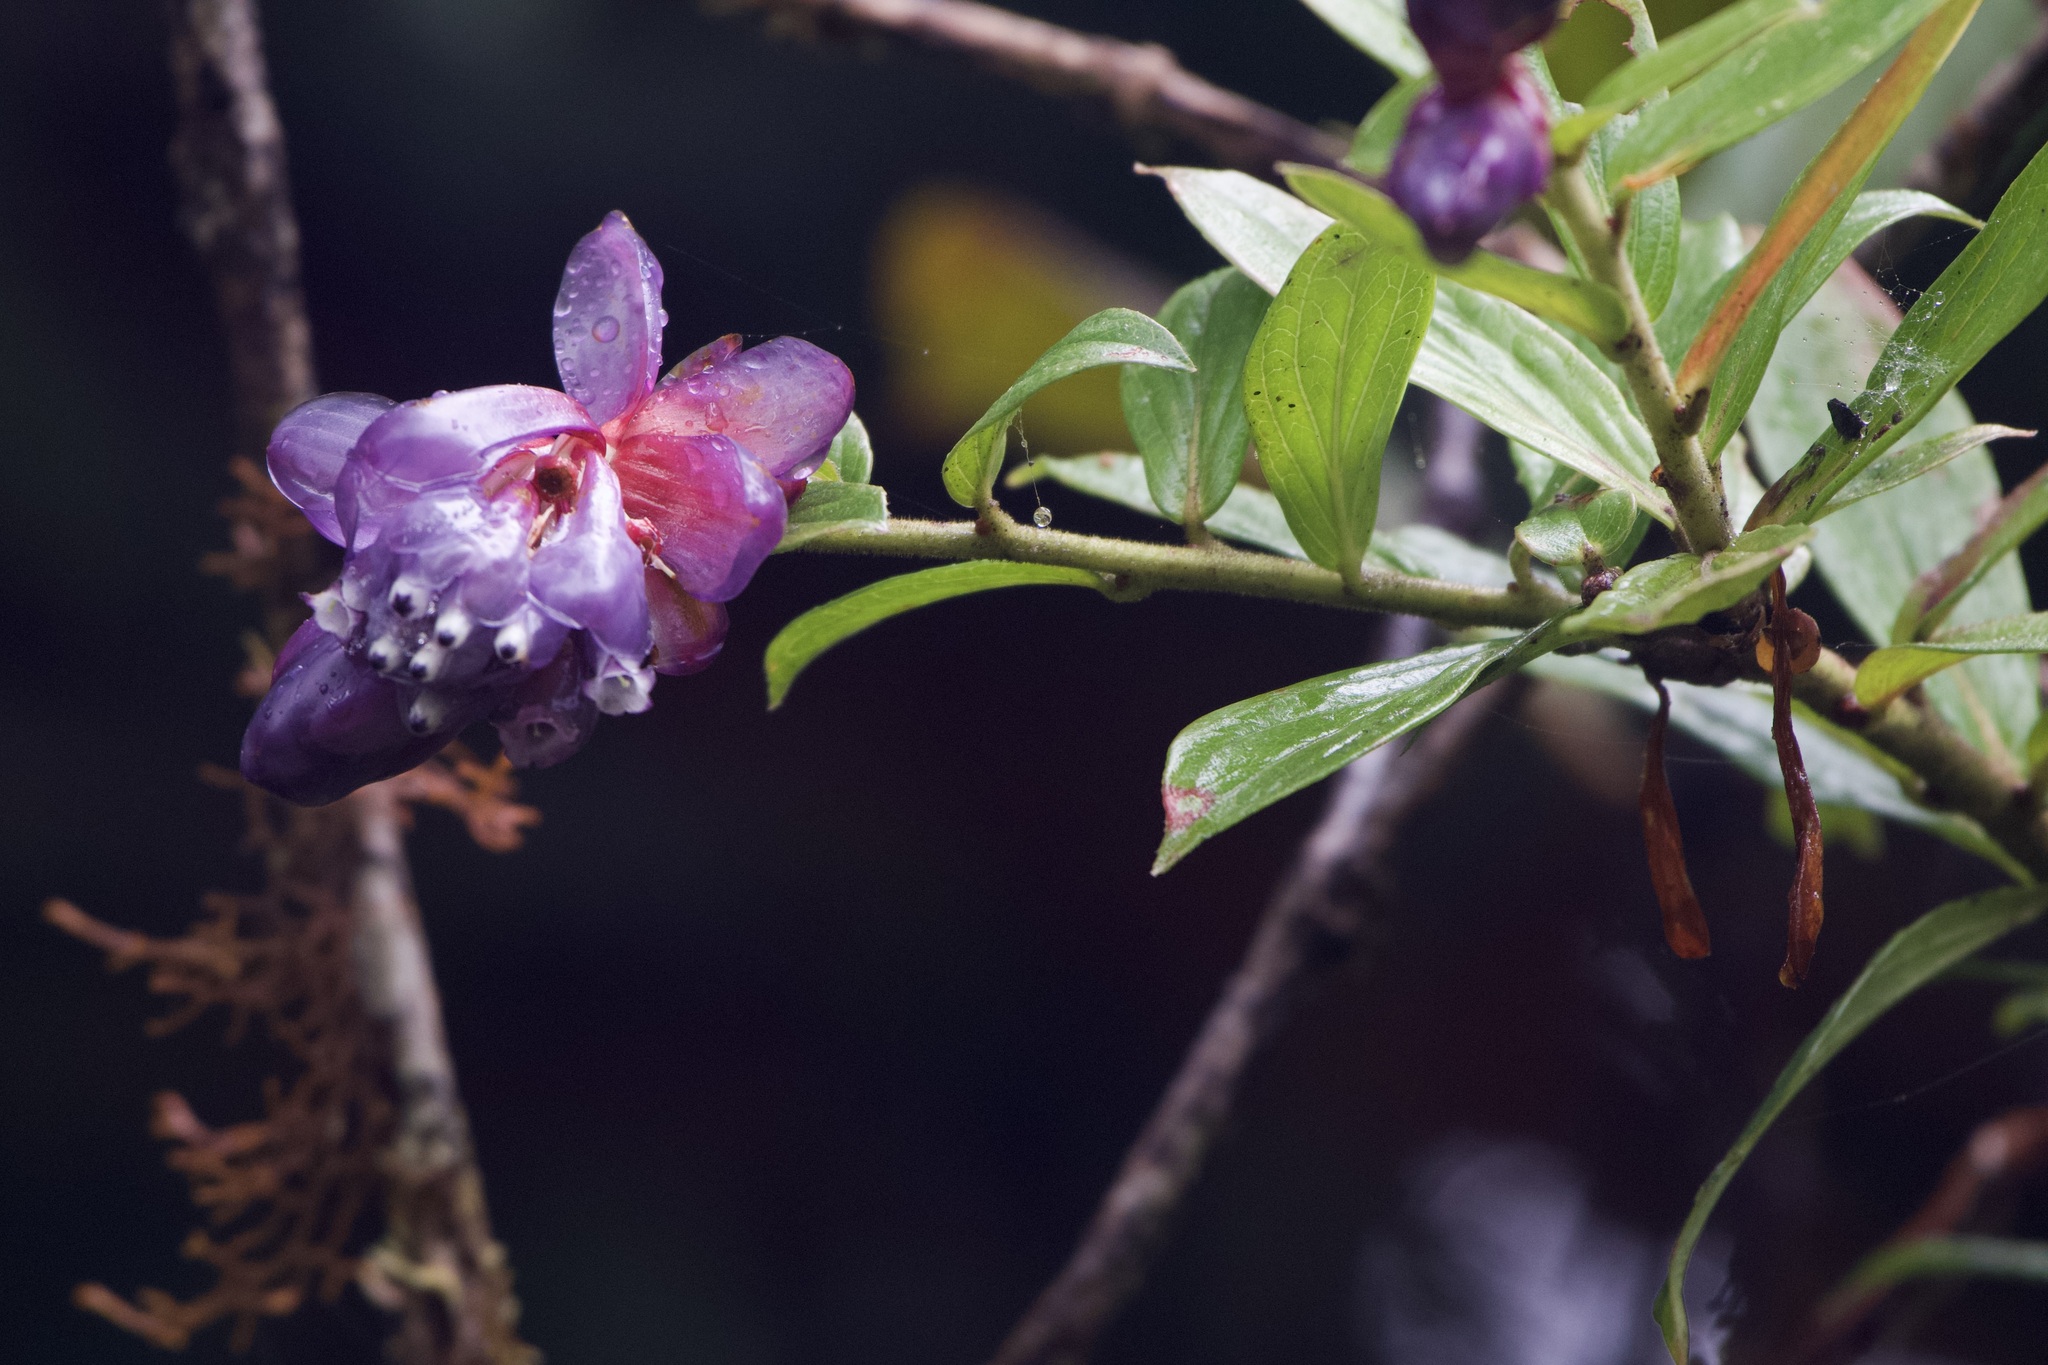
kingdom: Plantae
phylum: Tracheophyta
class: Magnoliopsida
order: Ericales
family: Ericaceae
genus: Cavendishia
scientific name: Cavendishia angustifolia
